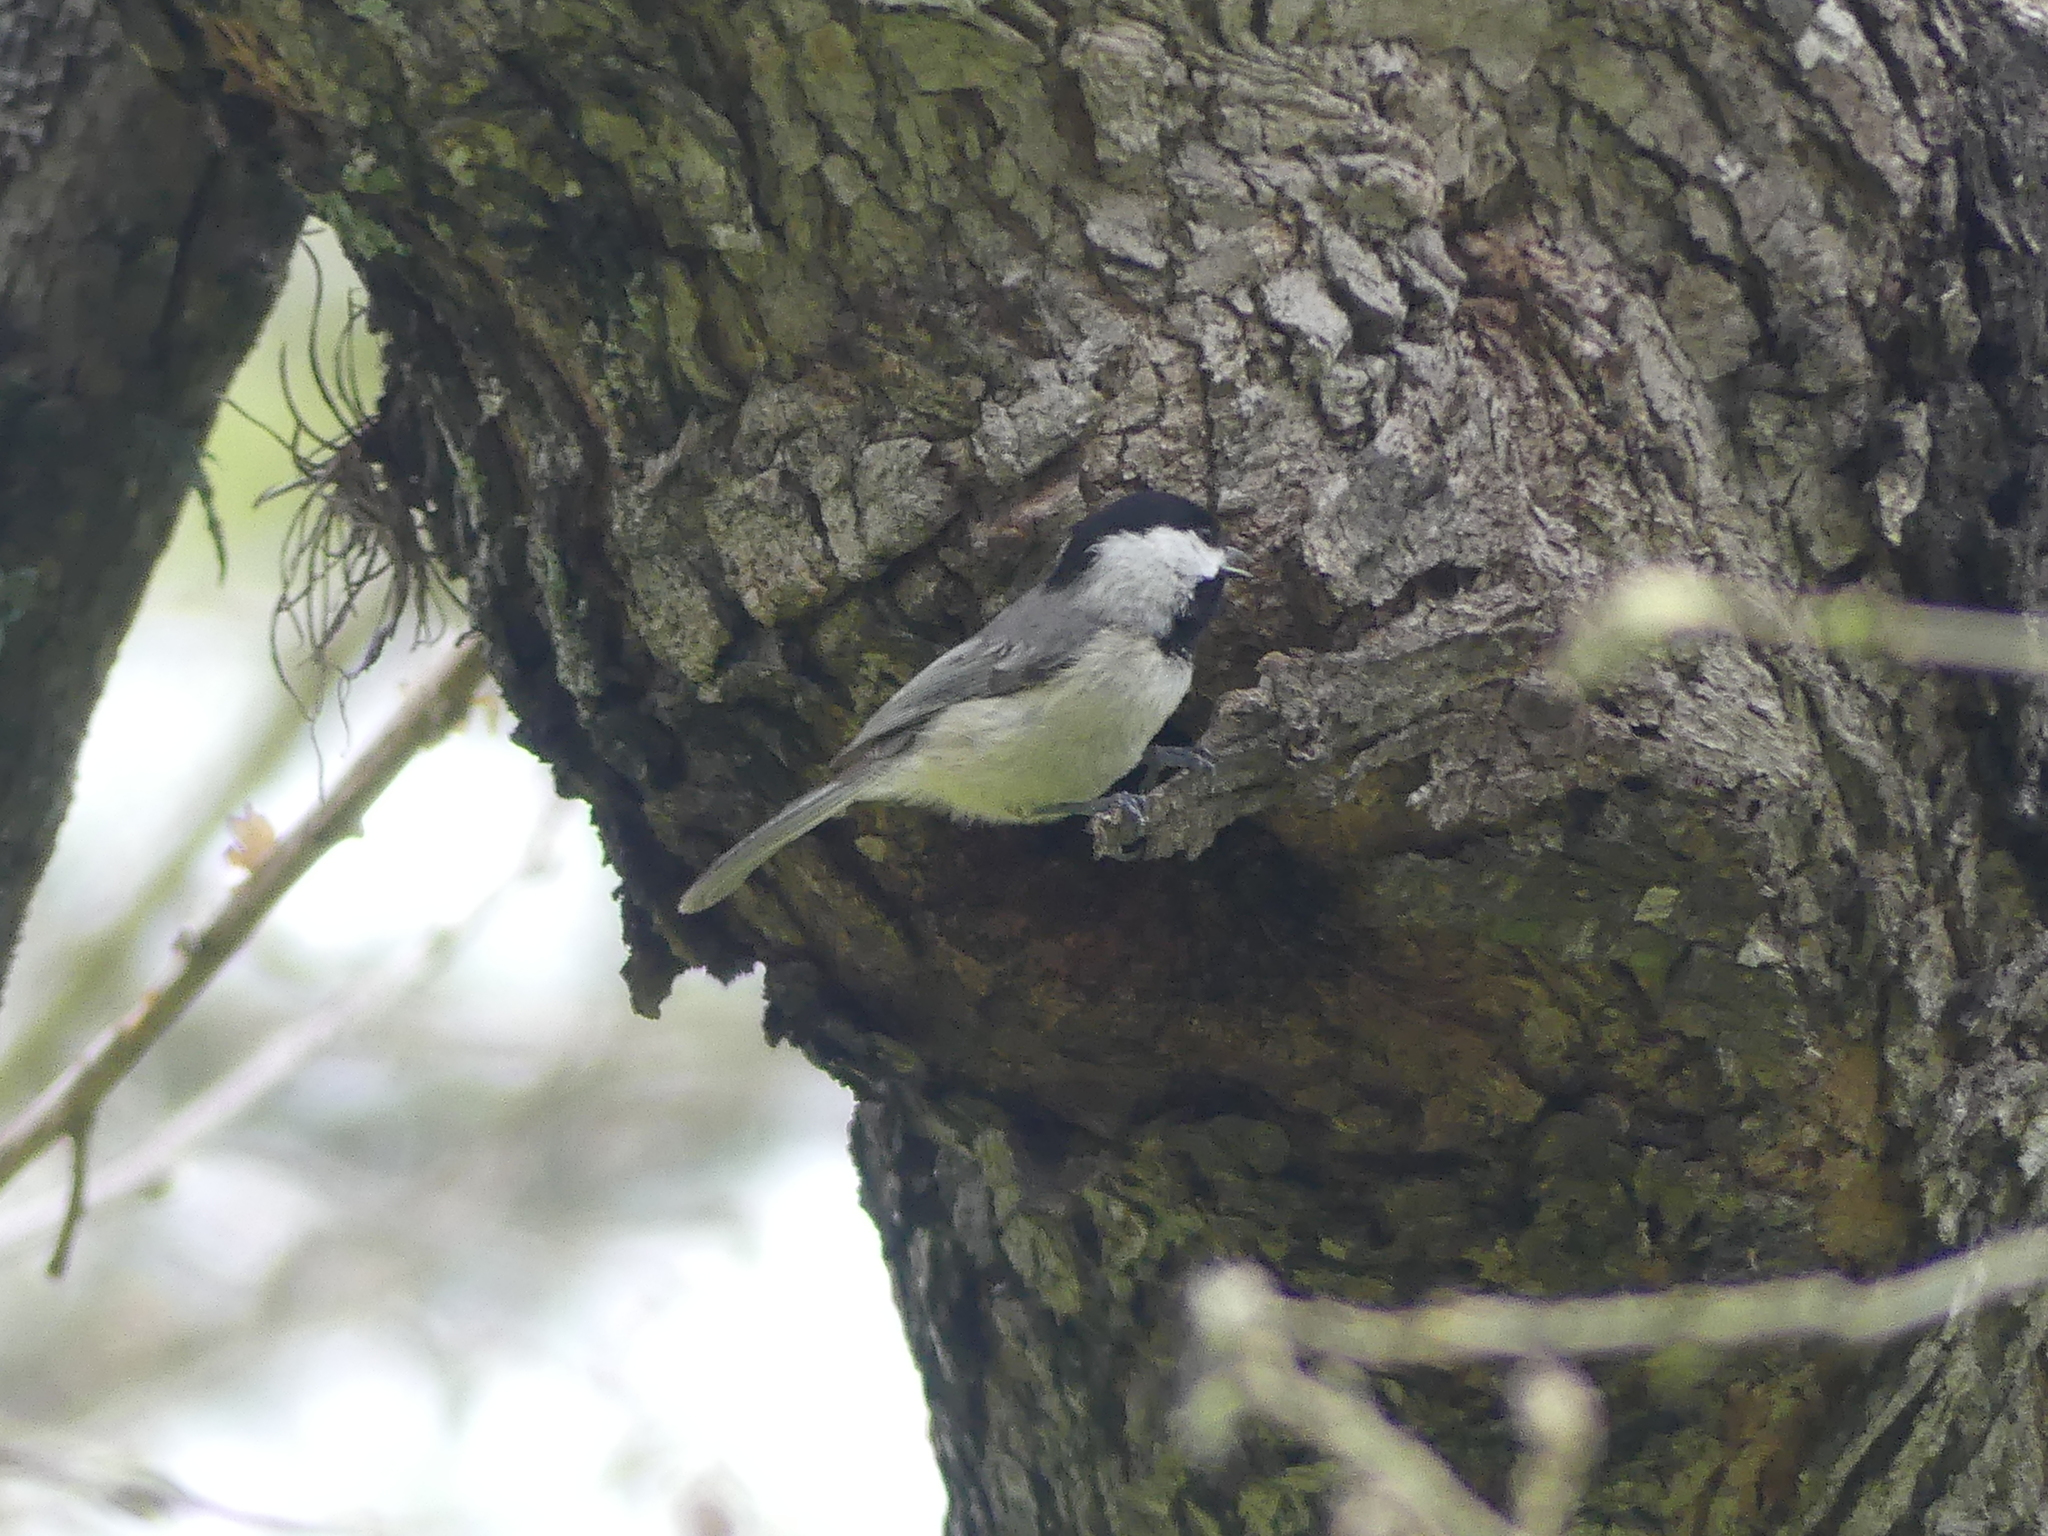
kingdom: Animalia
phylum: Chordata
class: Aves
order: Passeriformes
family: Paridae
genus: Poecile
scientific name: Poecile carolinensis
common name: Carolina chickadee
